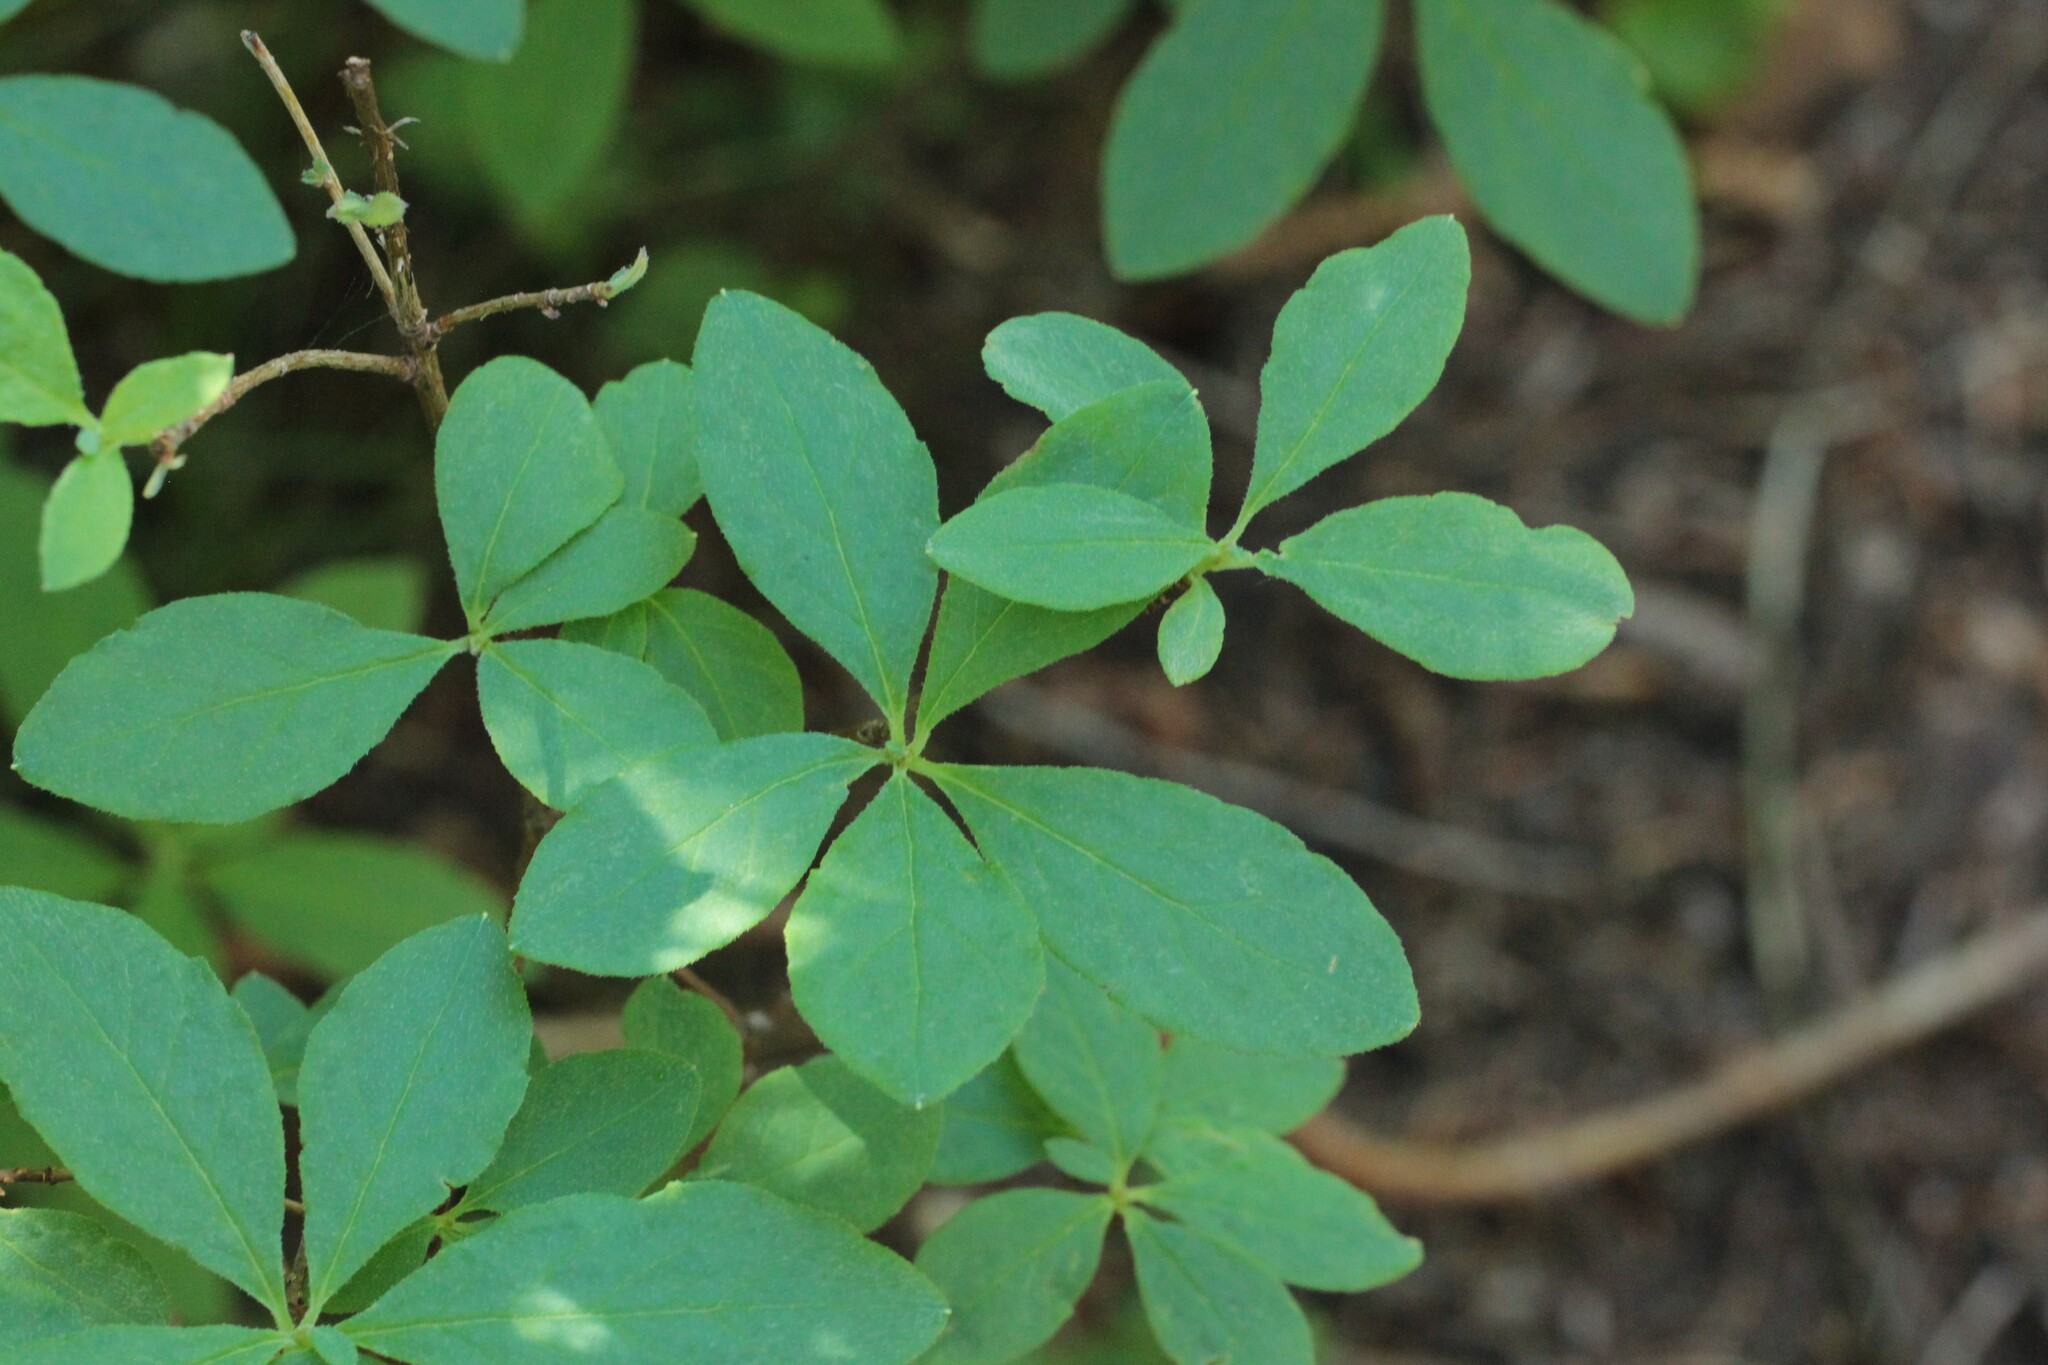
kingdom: Plantae
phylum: Tracheophyta
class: Magnoliopsida
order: Ericales
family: Ericaceae
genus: Rhododendron
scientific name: Rhododendron menziesii
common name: Pacific menziesia
